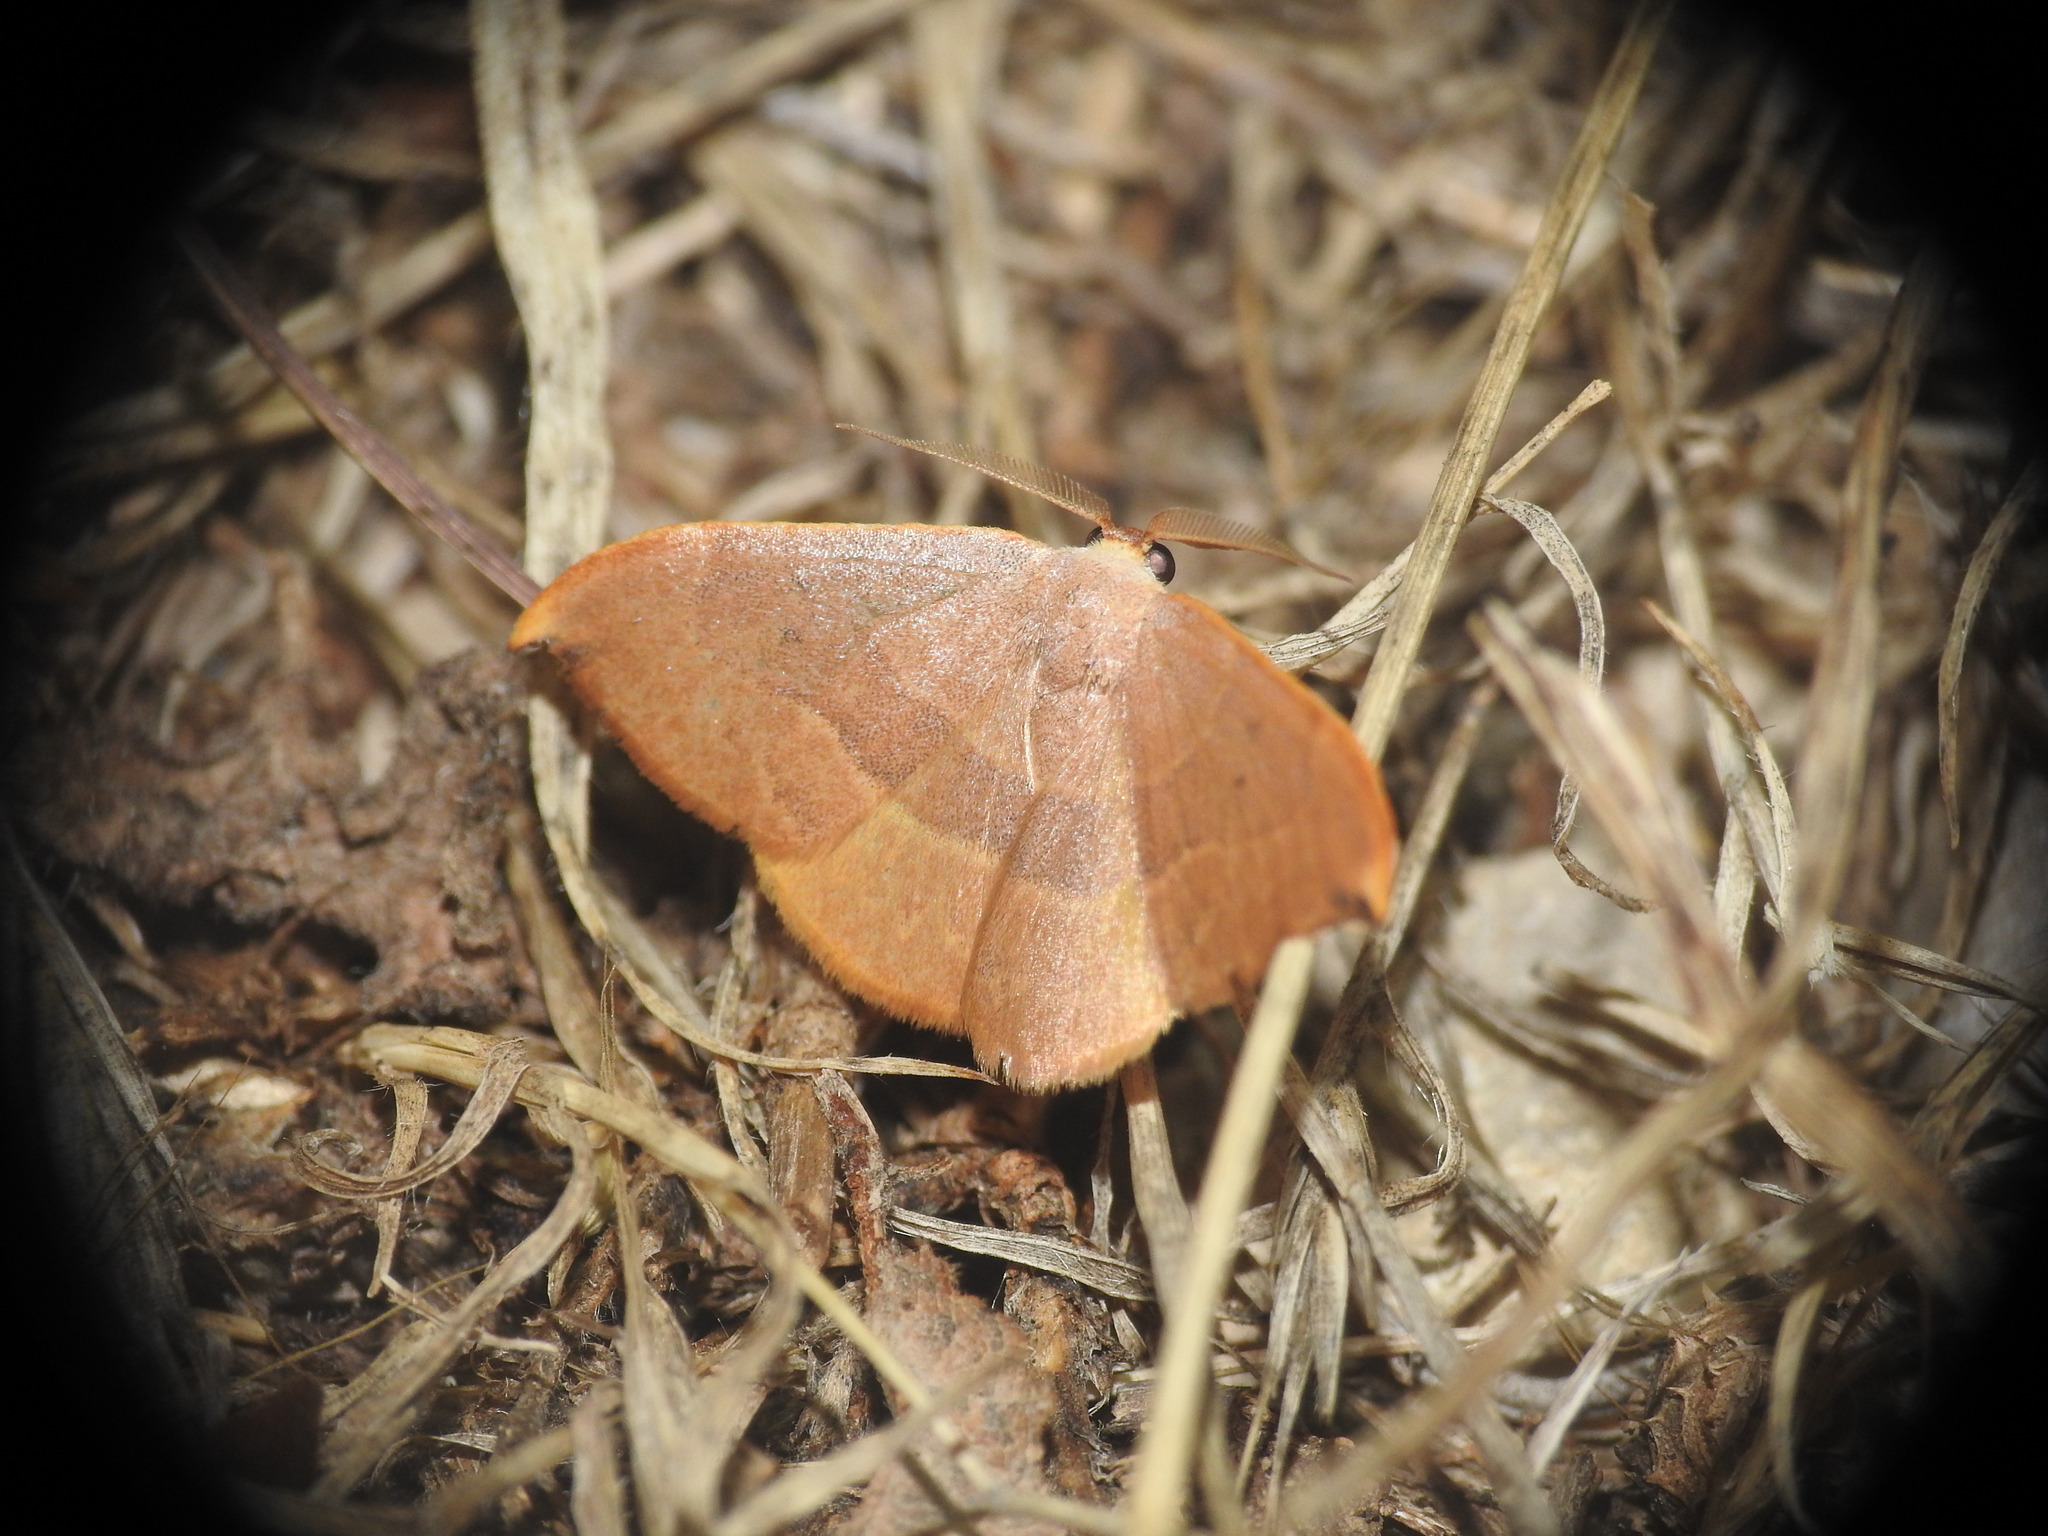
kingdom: Animalia
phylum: Arthropoda
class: Insecta
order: Lepidoptera
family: Drepanidae
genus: Watsonalla
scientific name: Watsonalla uncinula
